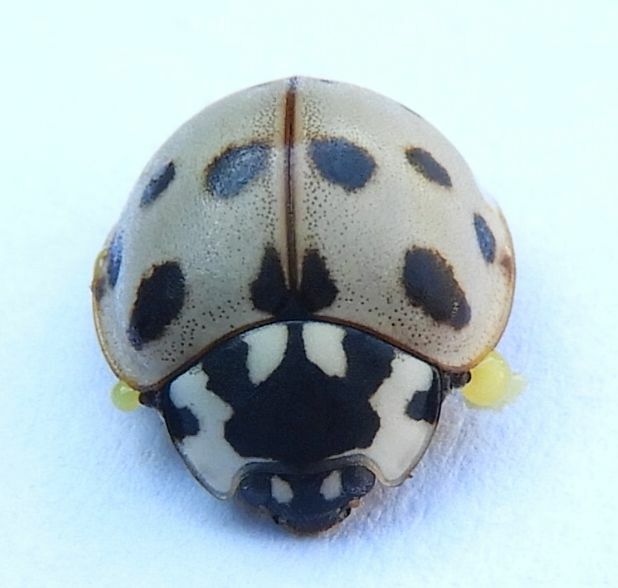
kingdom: Animalia
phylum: Arthropoda
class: Insecta
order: Coleoptera
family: Coccinellidae
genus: Anatis
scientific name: Anatis labiculata
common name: Fifteen-spotted lady beetle
